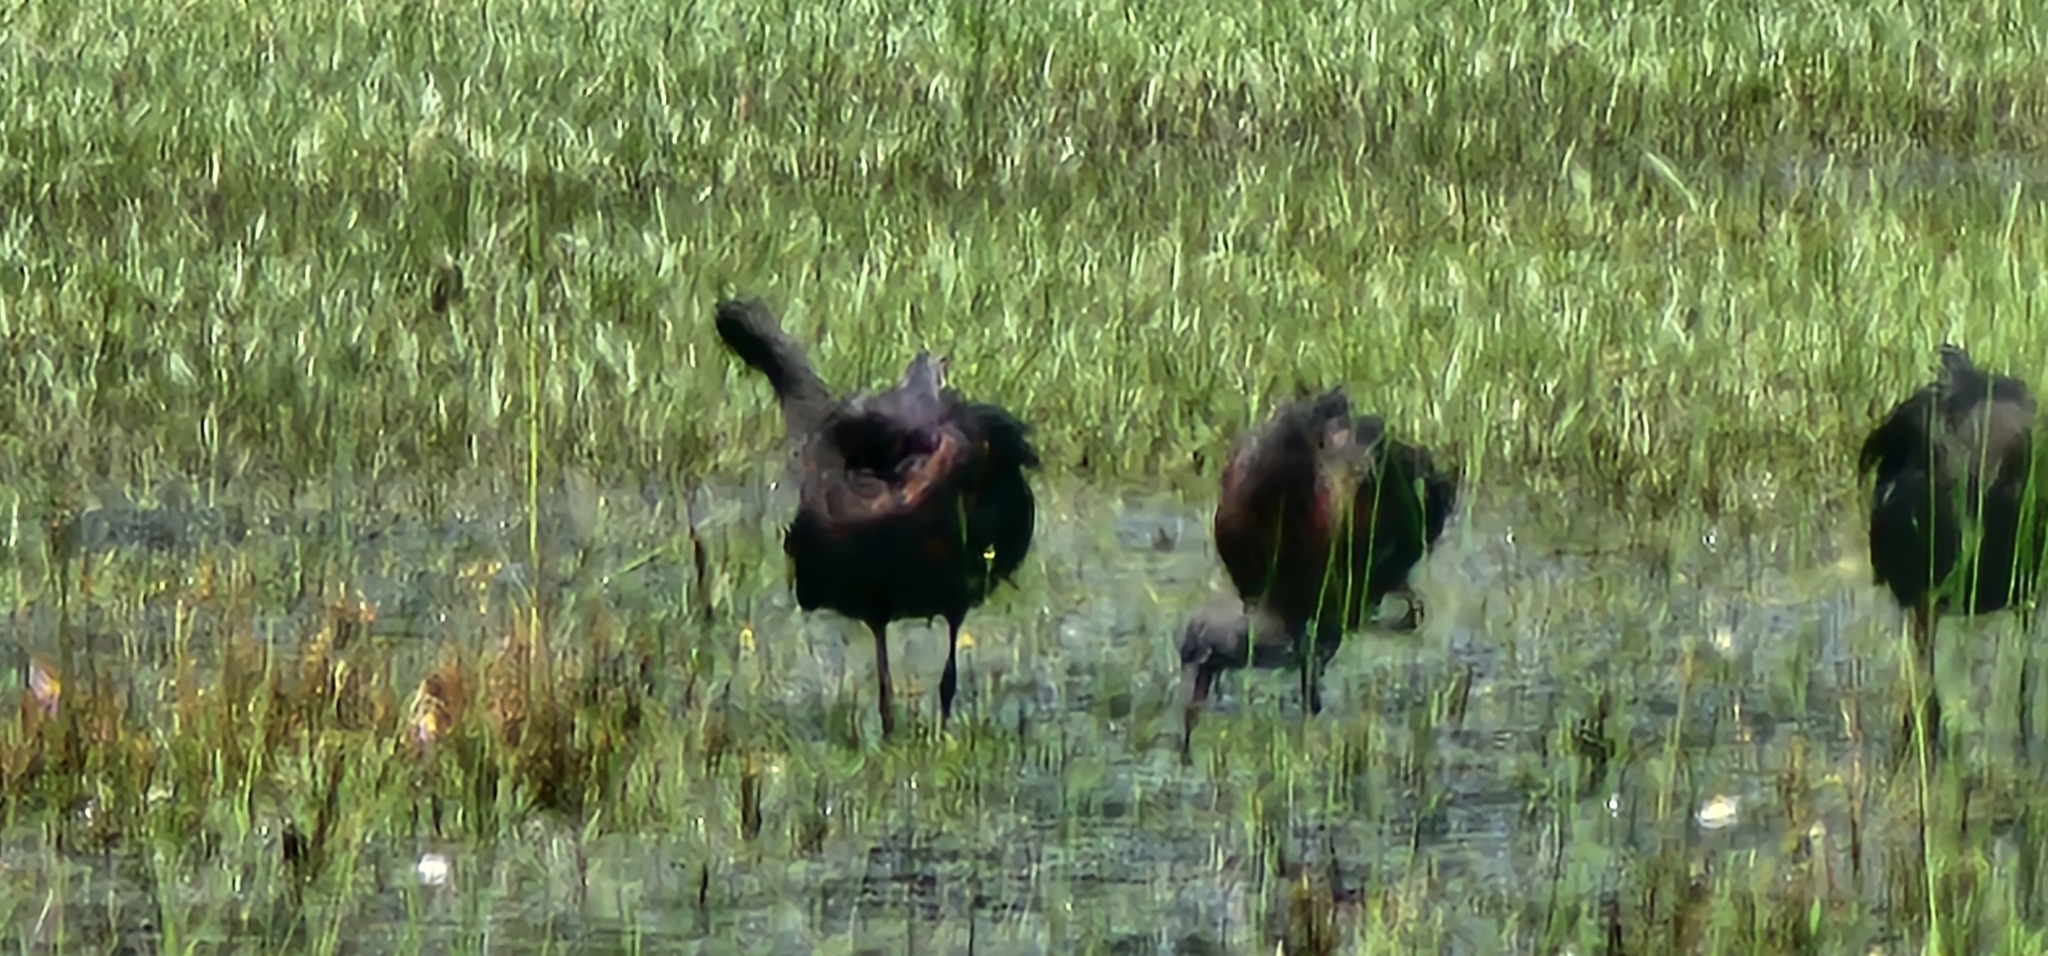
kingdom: Animalia
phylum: Chordata
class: Aves
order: Pelecaniformes
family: Threskiornithidae
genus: Plegadis
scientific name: Plegadis falcinellus
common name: Glossy ibis
